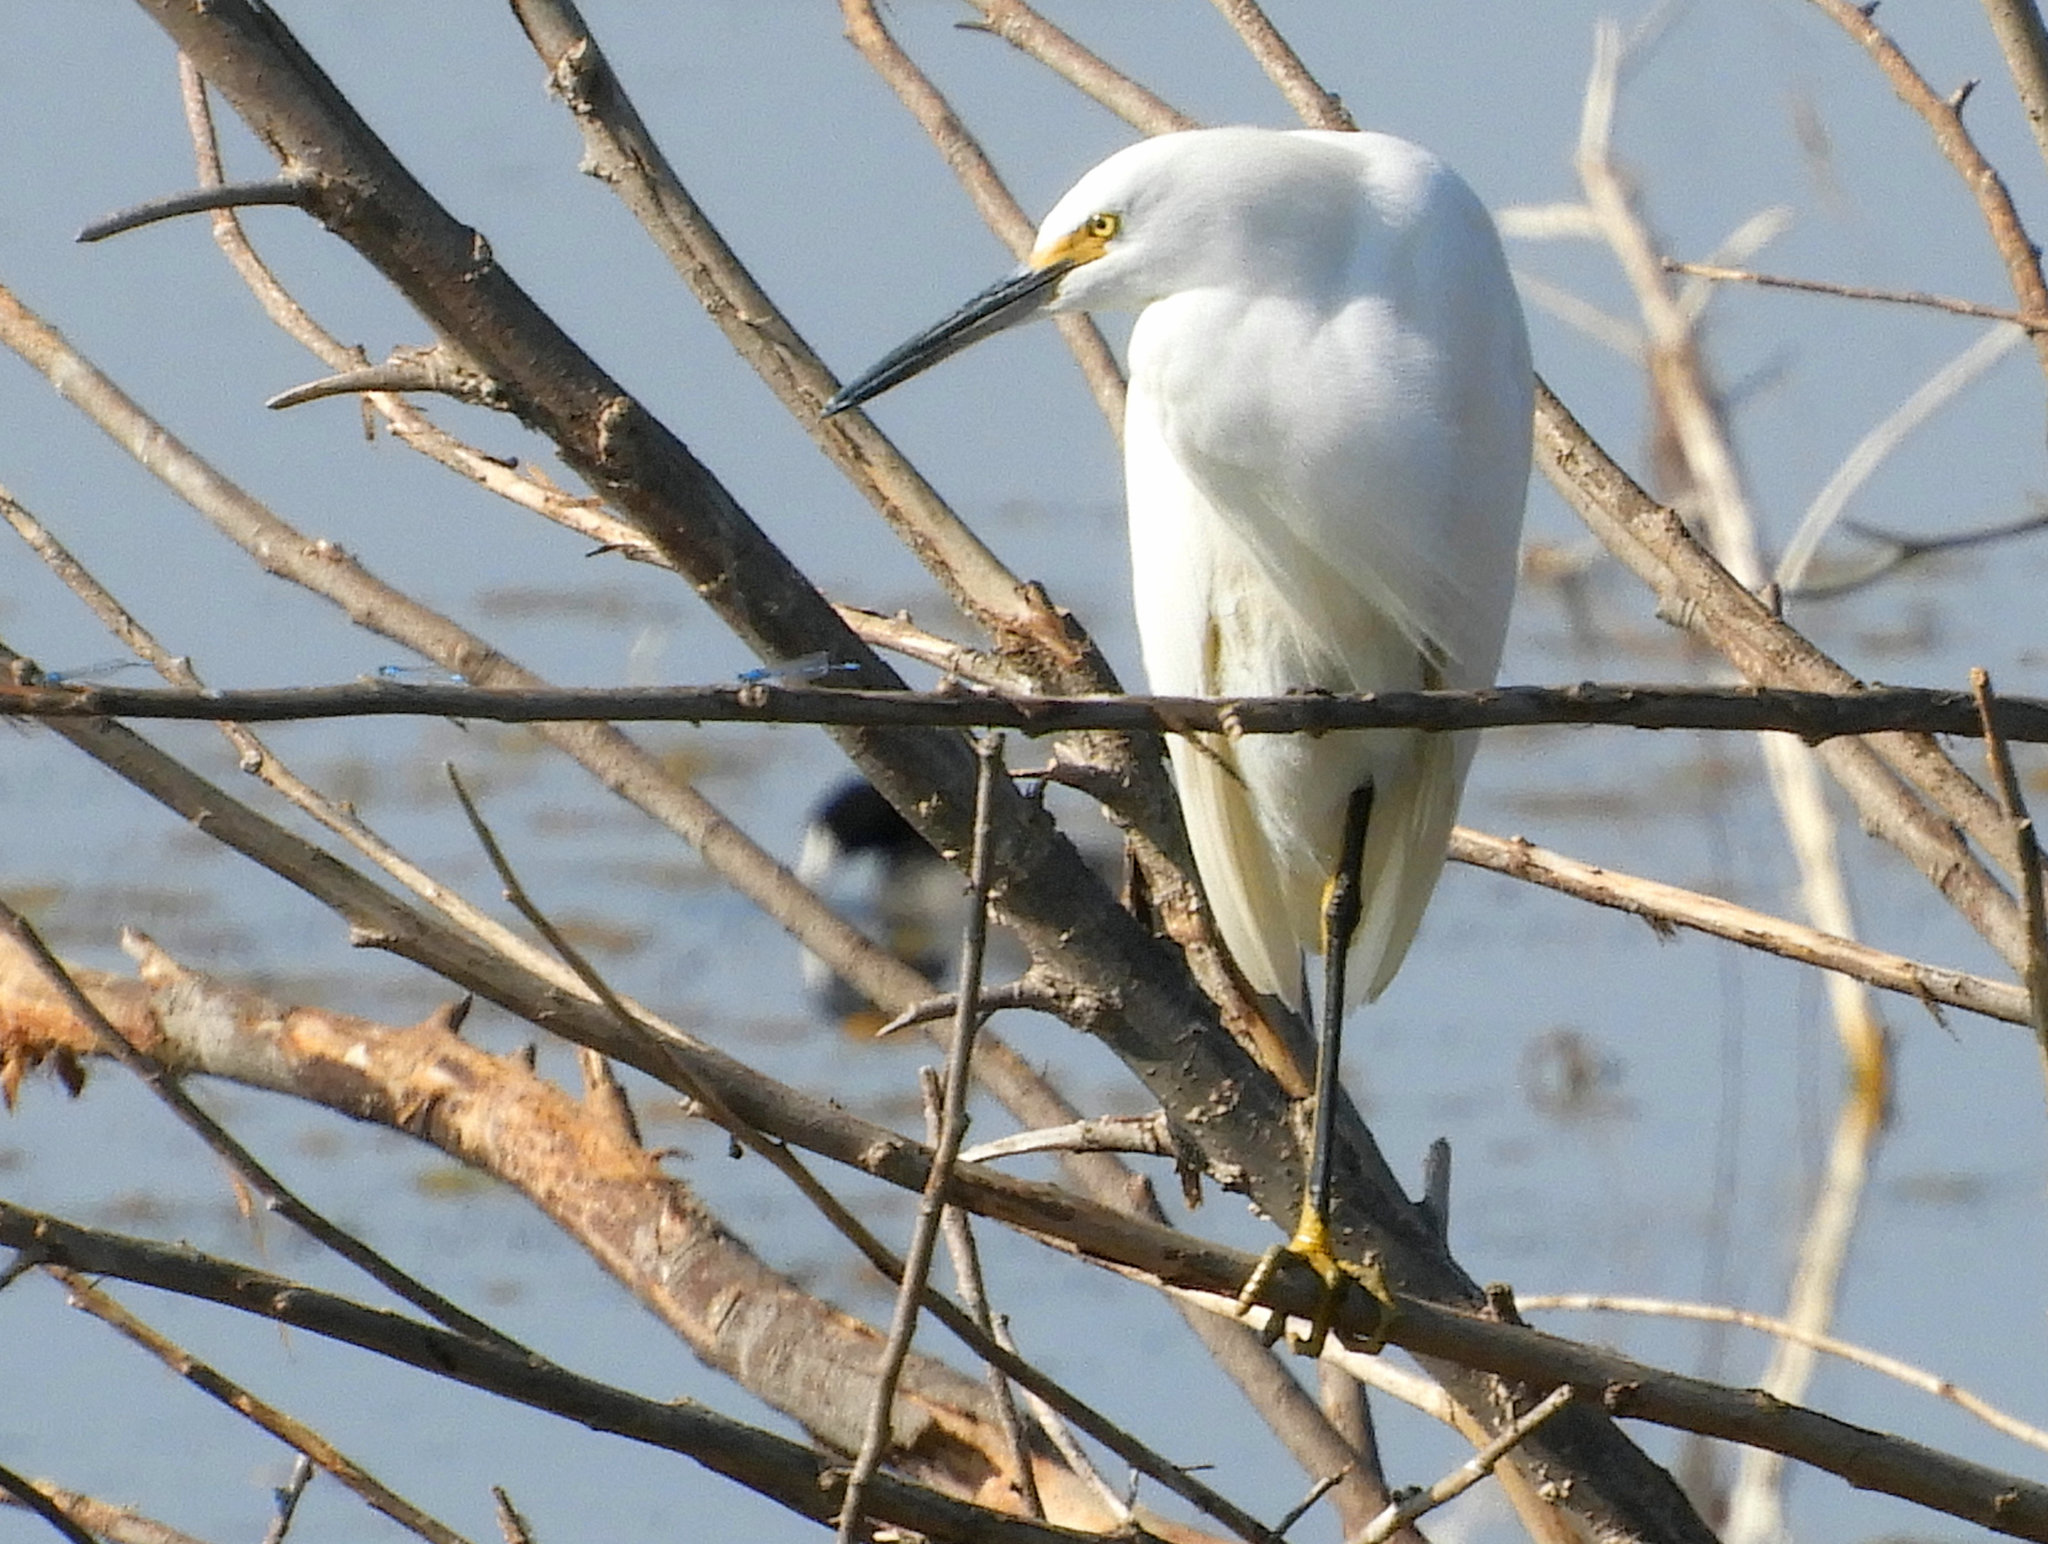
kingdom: Animalia
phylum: Chordata
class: Aves
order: Pelecaniformes
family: Ardeidae
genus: Egretta
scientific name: Egretta thula
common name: Snowy egret
